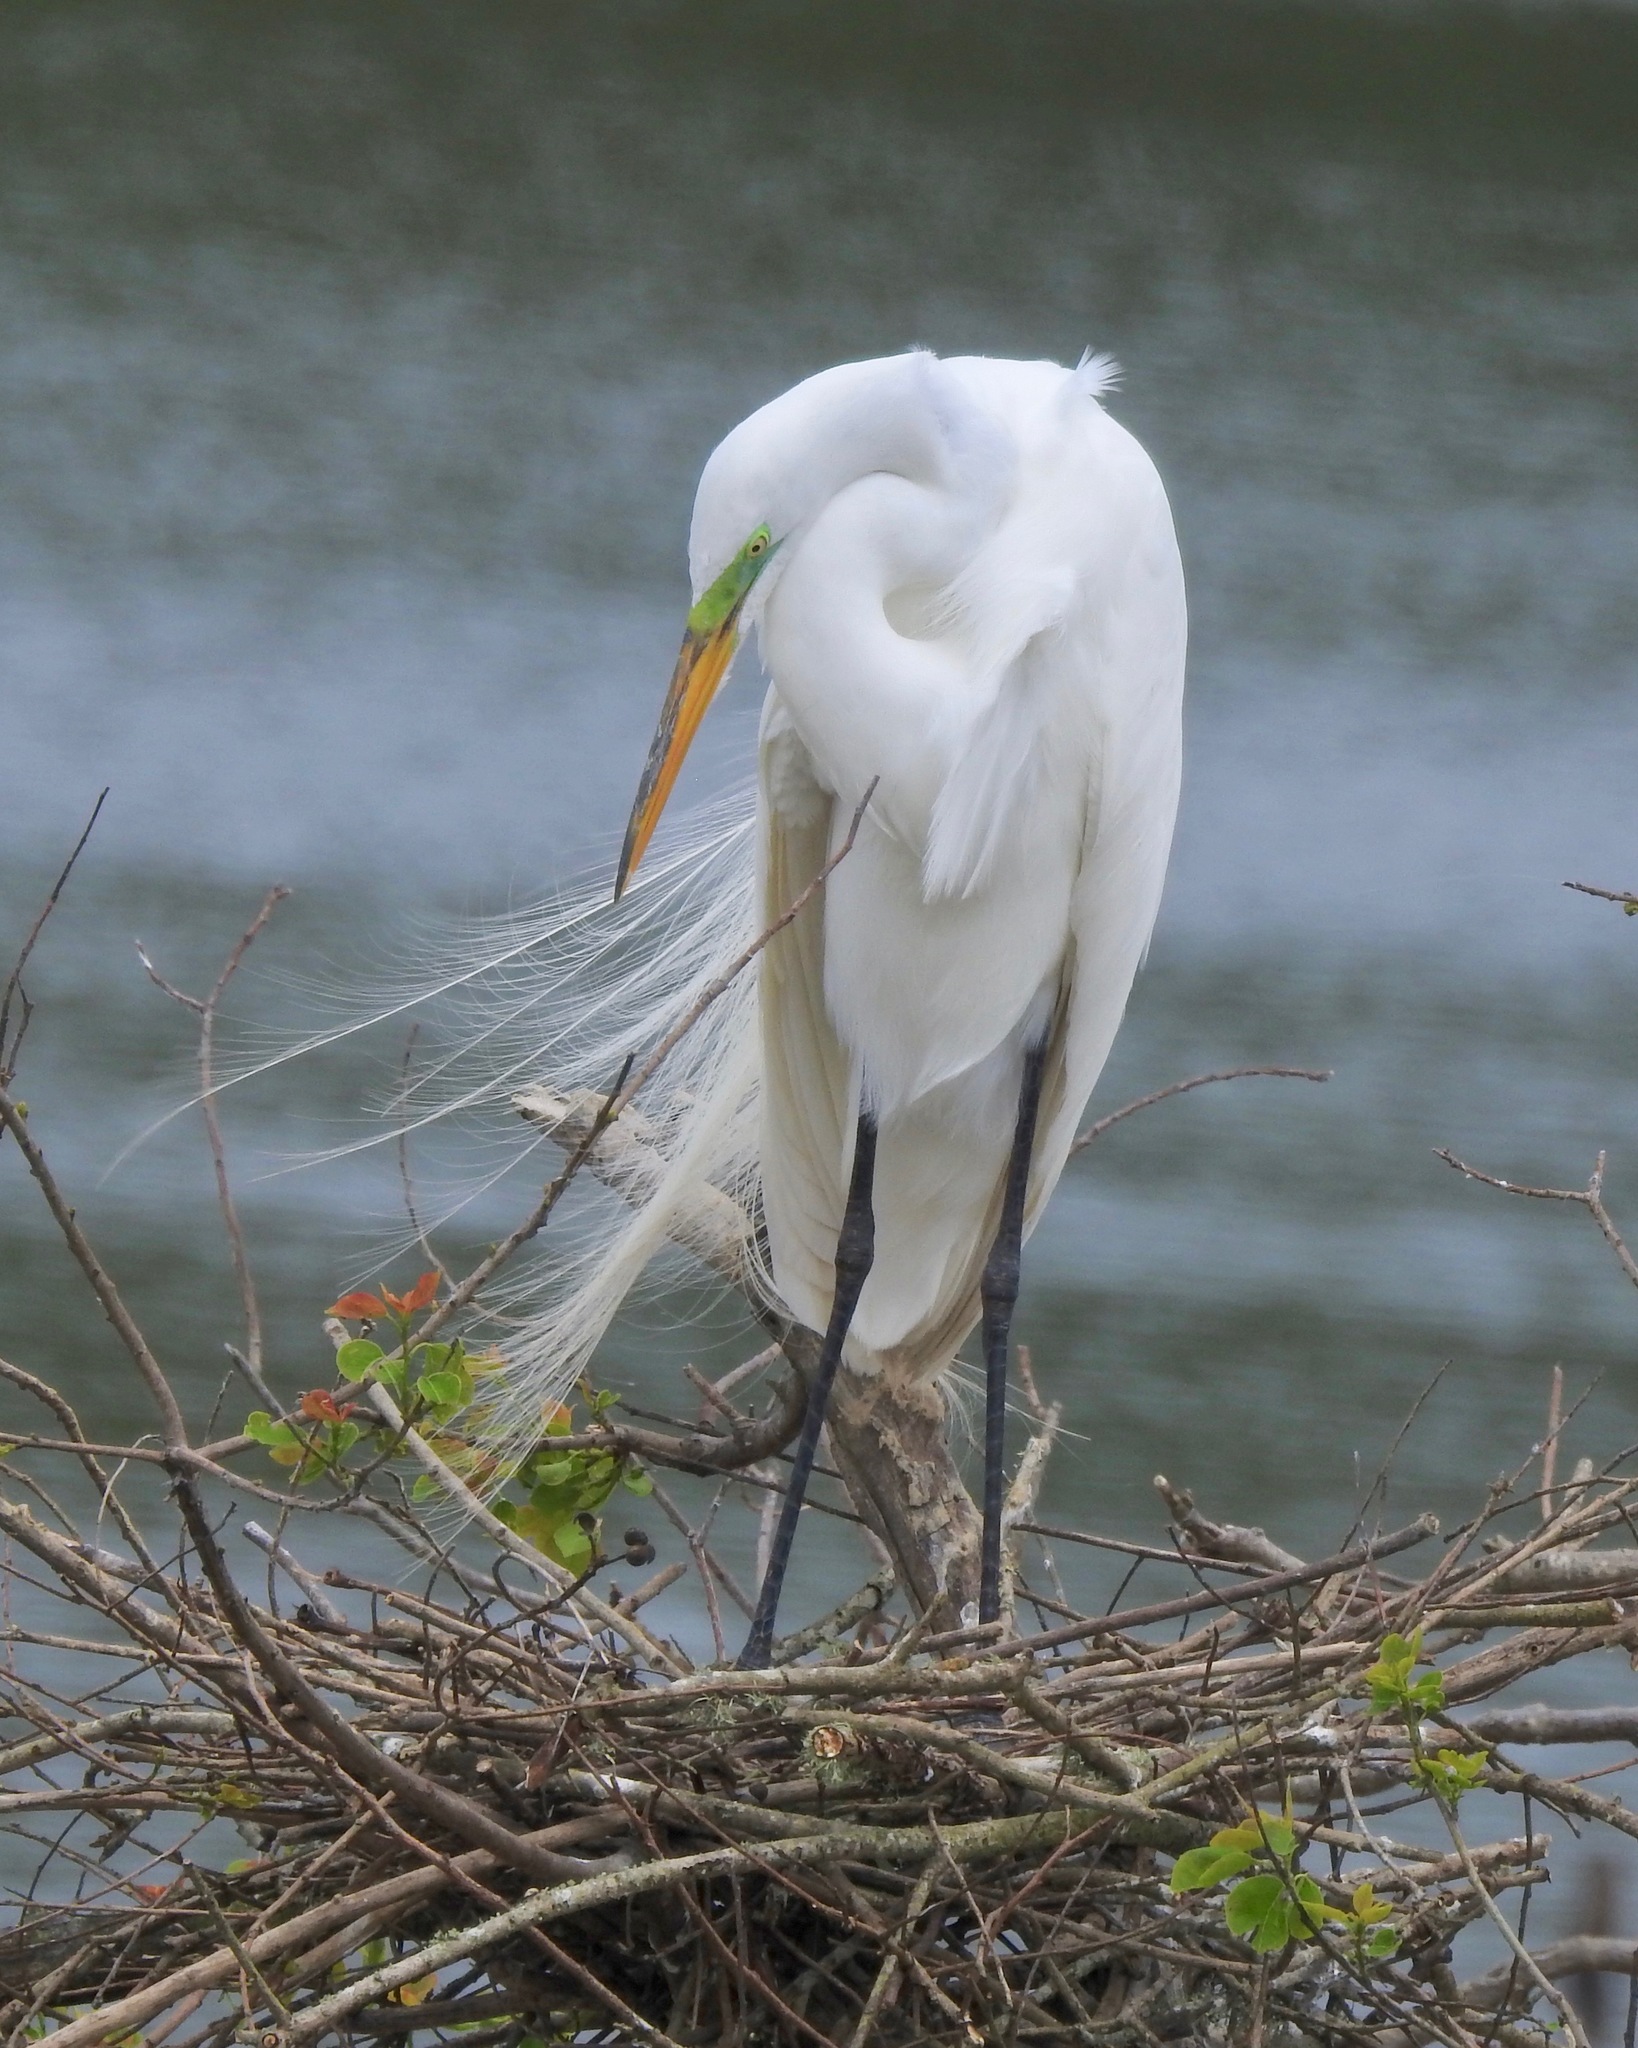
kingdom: Animalia
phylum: Chordata
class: Aves
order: Pelecaniformes
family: Ardeidae
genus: Ardea
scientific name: Ardea alba
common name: Great egret
